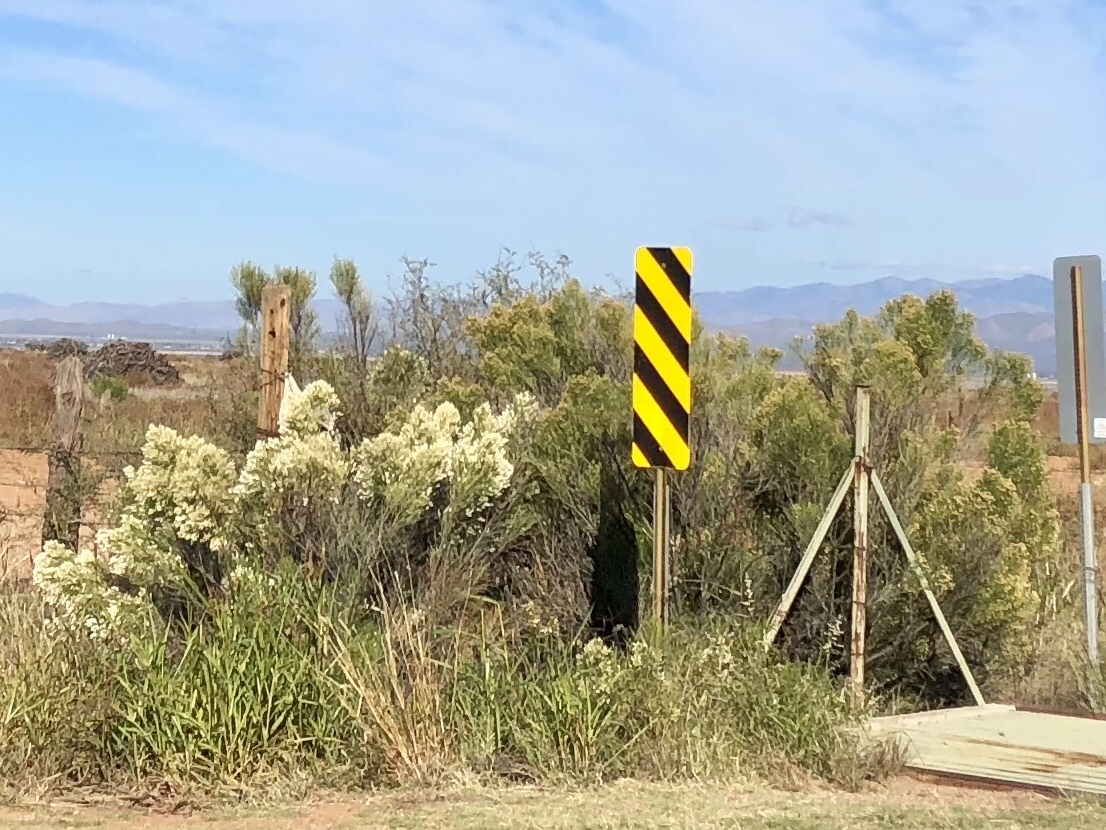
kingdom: Plantae
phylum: Tracheophyta
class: Magnoliopsida
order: Asterales
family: Asteraceae
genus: Baccharis
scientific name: Baccharis sarothroides
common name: Desert-broom
